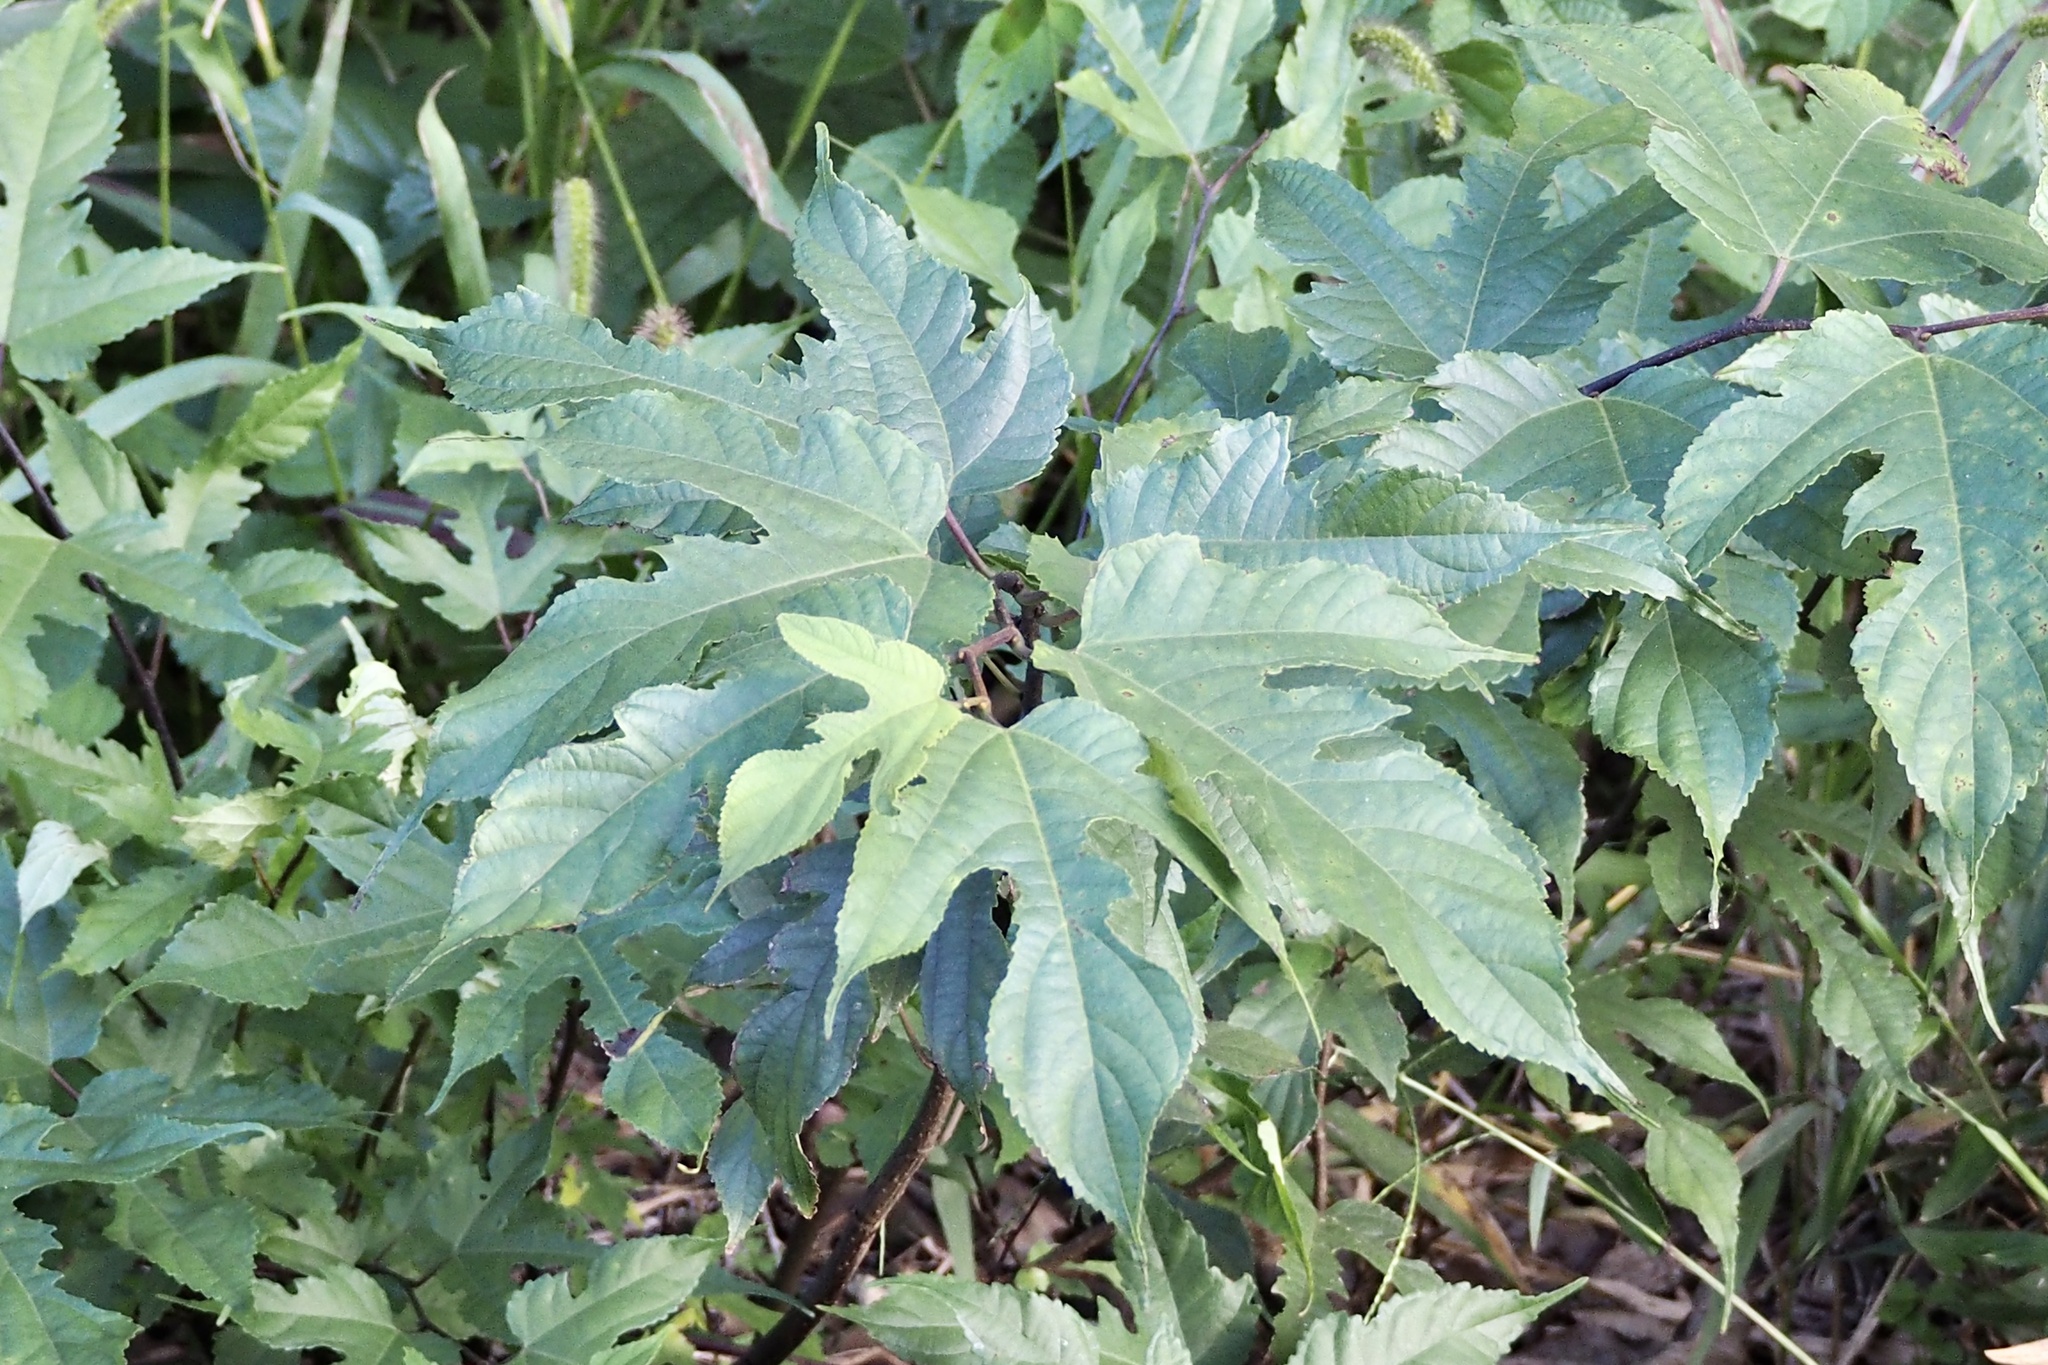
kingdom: Plantae
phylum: Tracheophyta
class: Magnoliopsida
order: Rosales
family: Moraceae
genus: Broussonetia
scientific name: Broussonetia monoica
